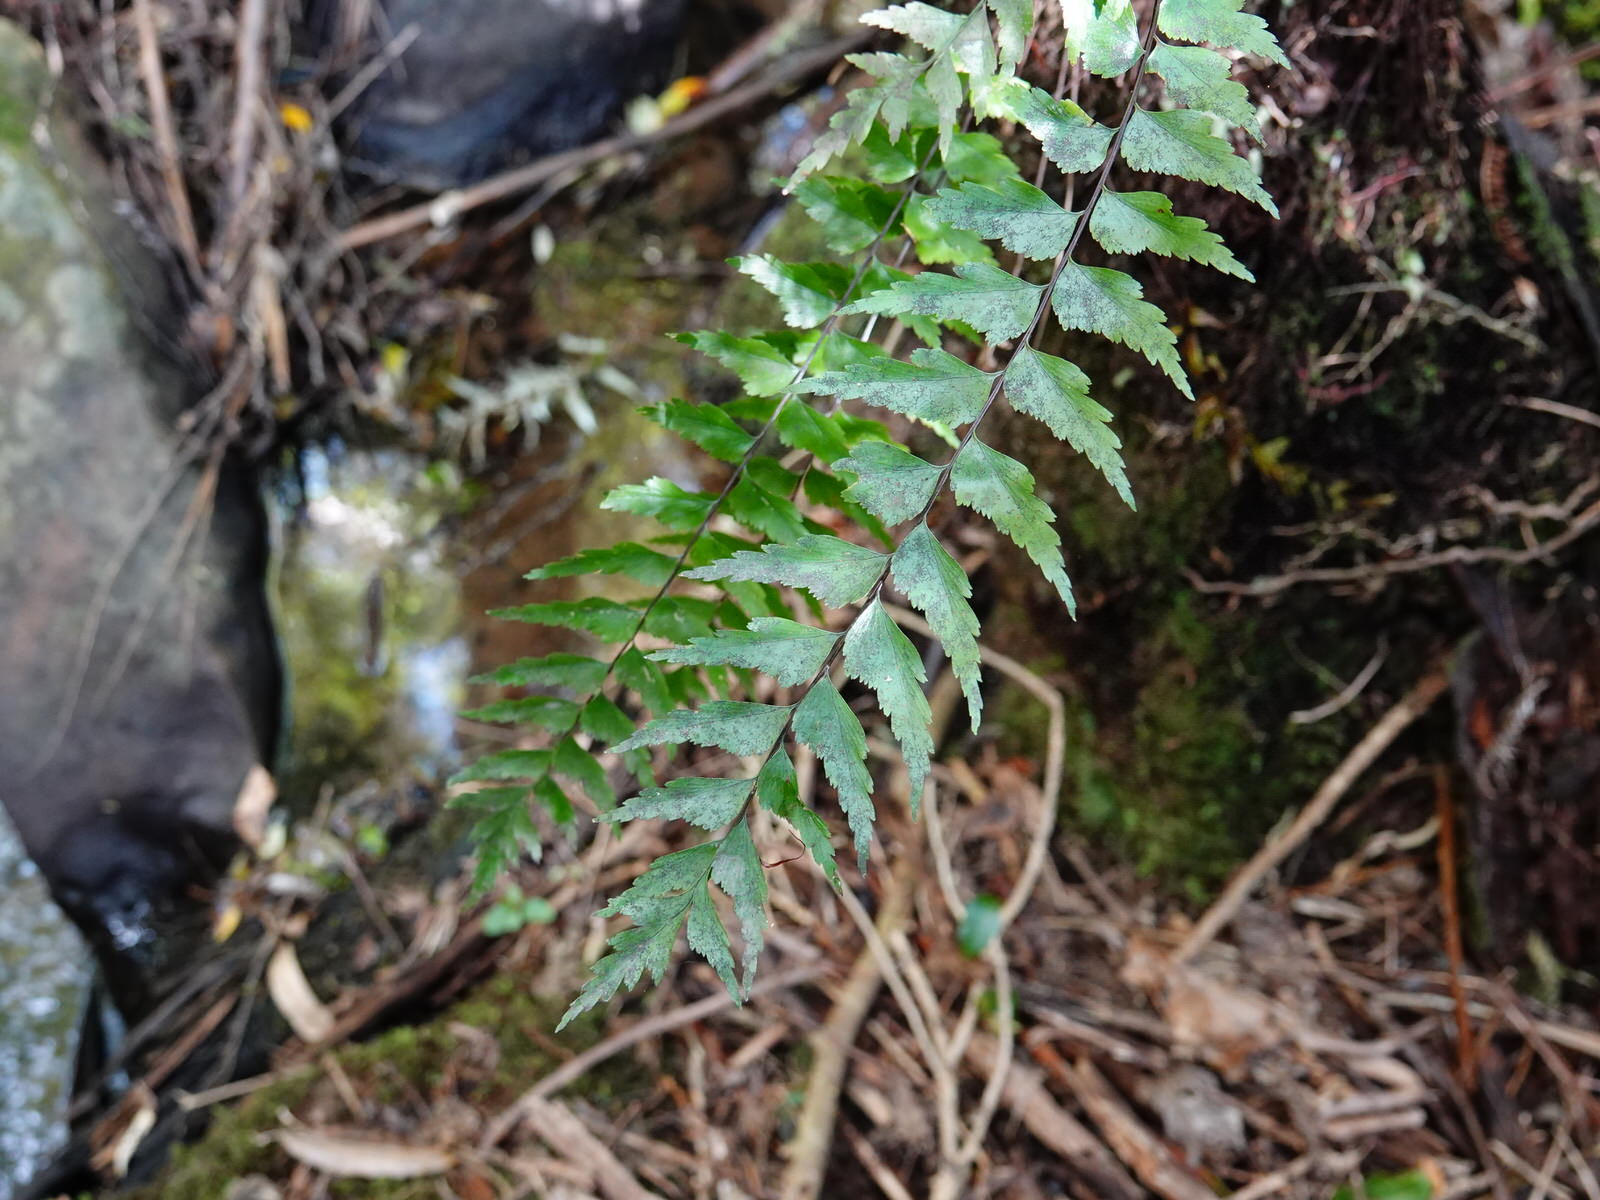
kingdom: Plantae
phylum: Tracheophyta
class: Polypodiopsida
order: Polypodiales
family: Aspleniaceae
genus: Asplenium
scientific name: Asplenium polyodon
